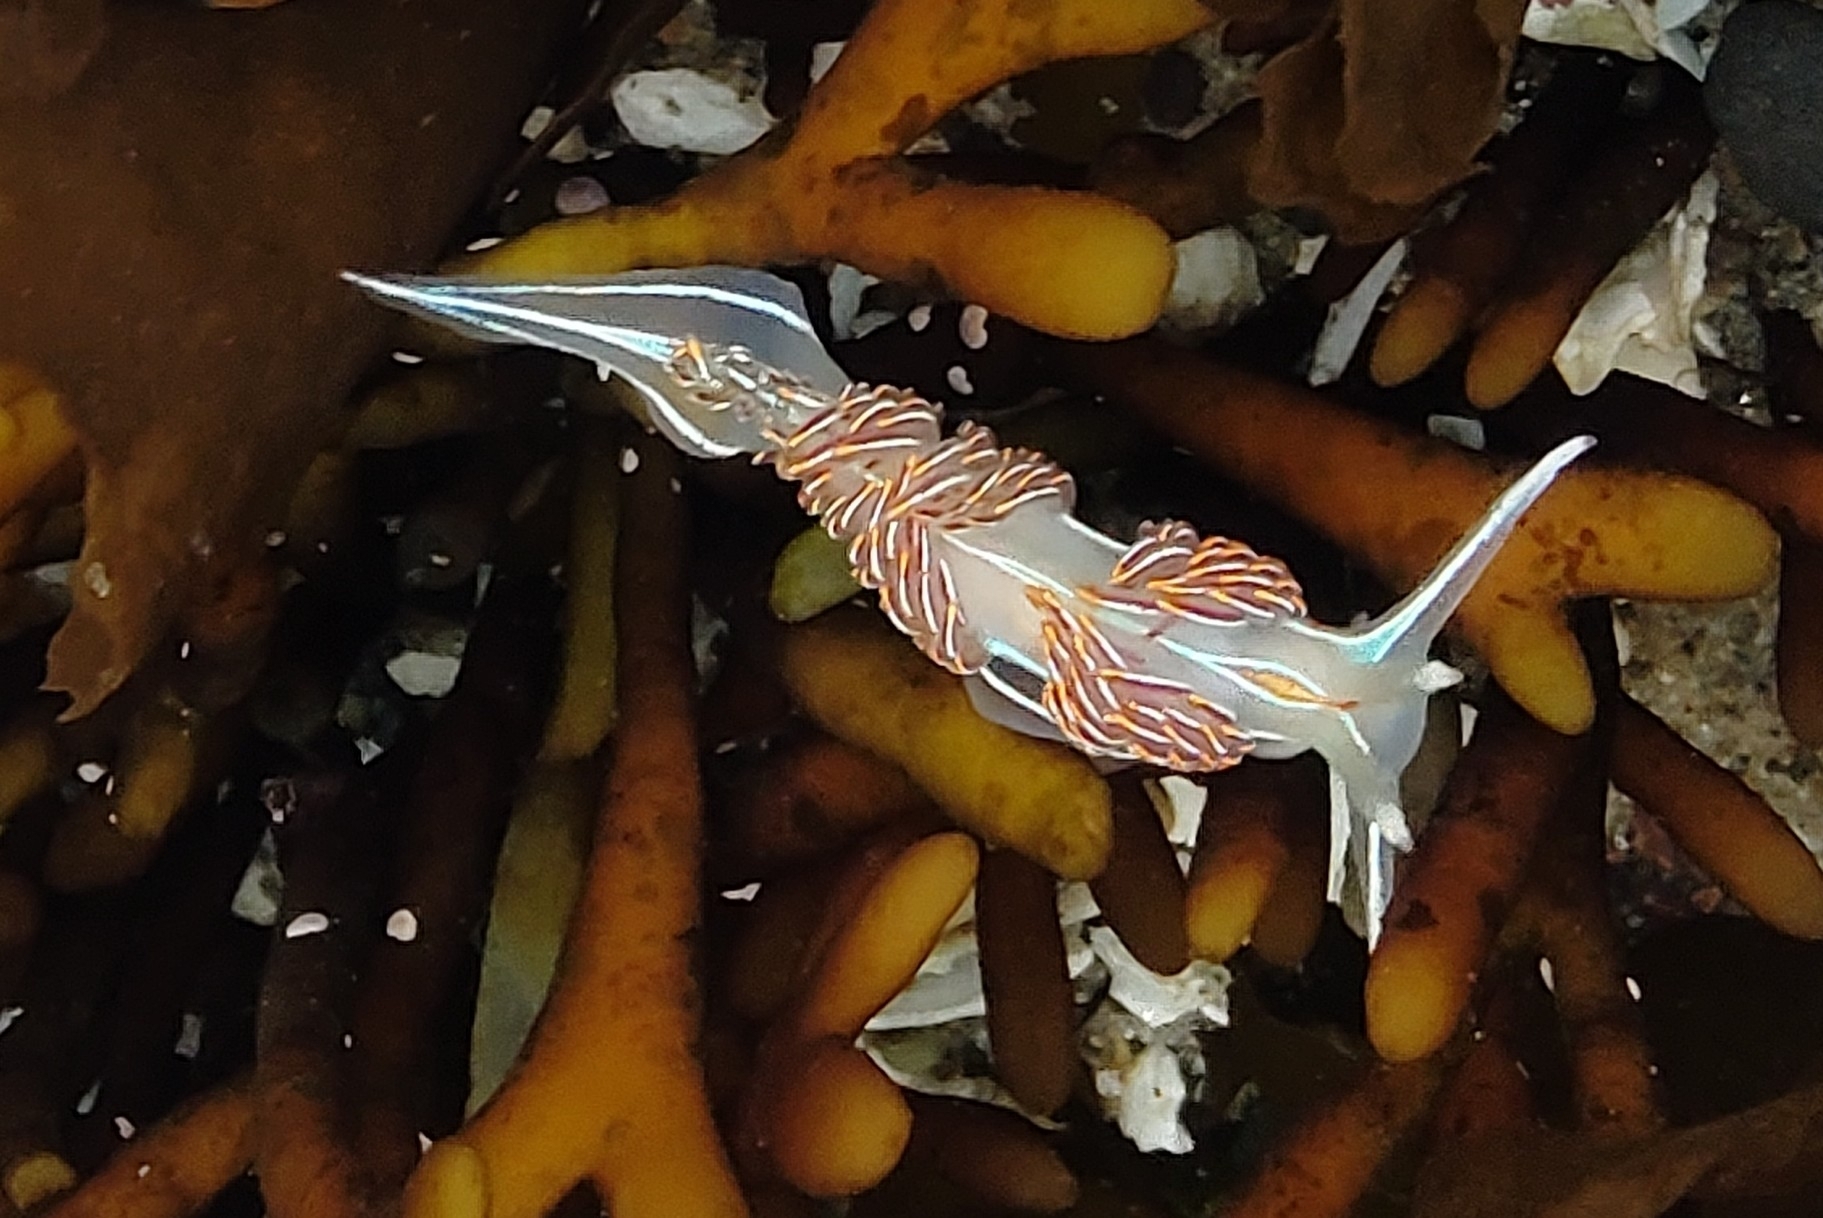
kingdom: Animalia
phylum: Mollusca
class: Gastropoda
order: Nudibranchia
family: Myrrhinidae
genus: Hermissenda
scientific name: Hermissenda crassicornis
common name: Hermissenda
